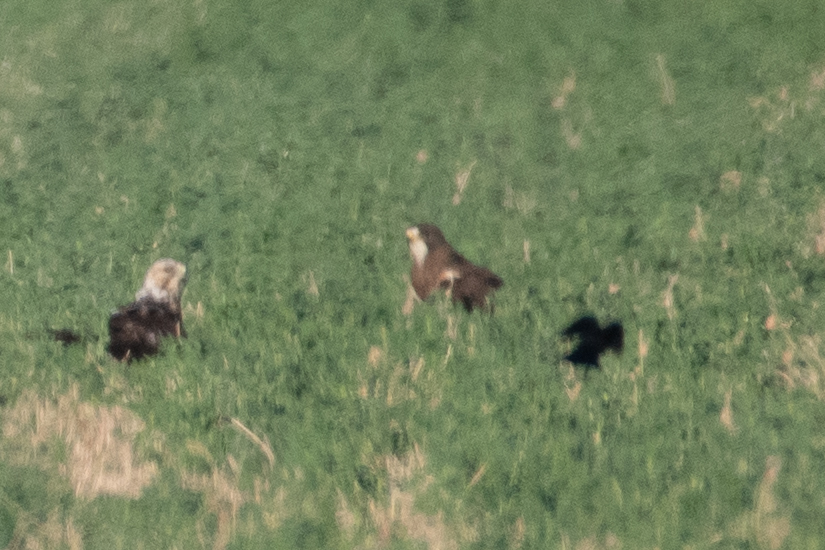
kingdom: Animalia
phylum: Chordata
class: Aves
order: Accipitriformes
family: Accipitridae
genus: Buteo
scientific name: Buteo swainsoni
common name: Swainson's hawk
